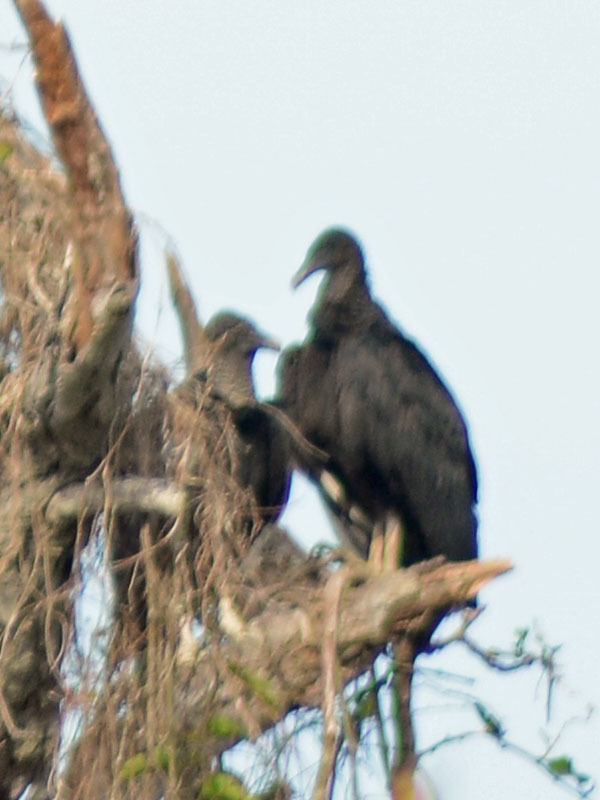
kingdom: Animalia
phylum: Chordata
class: Aves
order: Accipitriformes
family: Cathartidae
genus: Coragyps
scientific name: Coragyps atratus
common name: Black vulture
